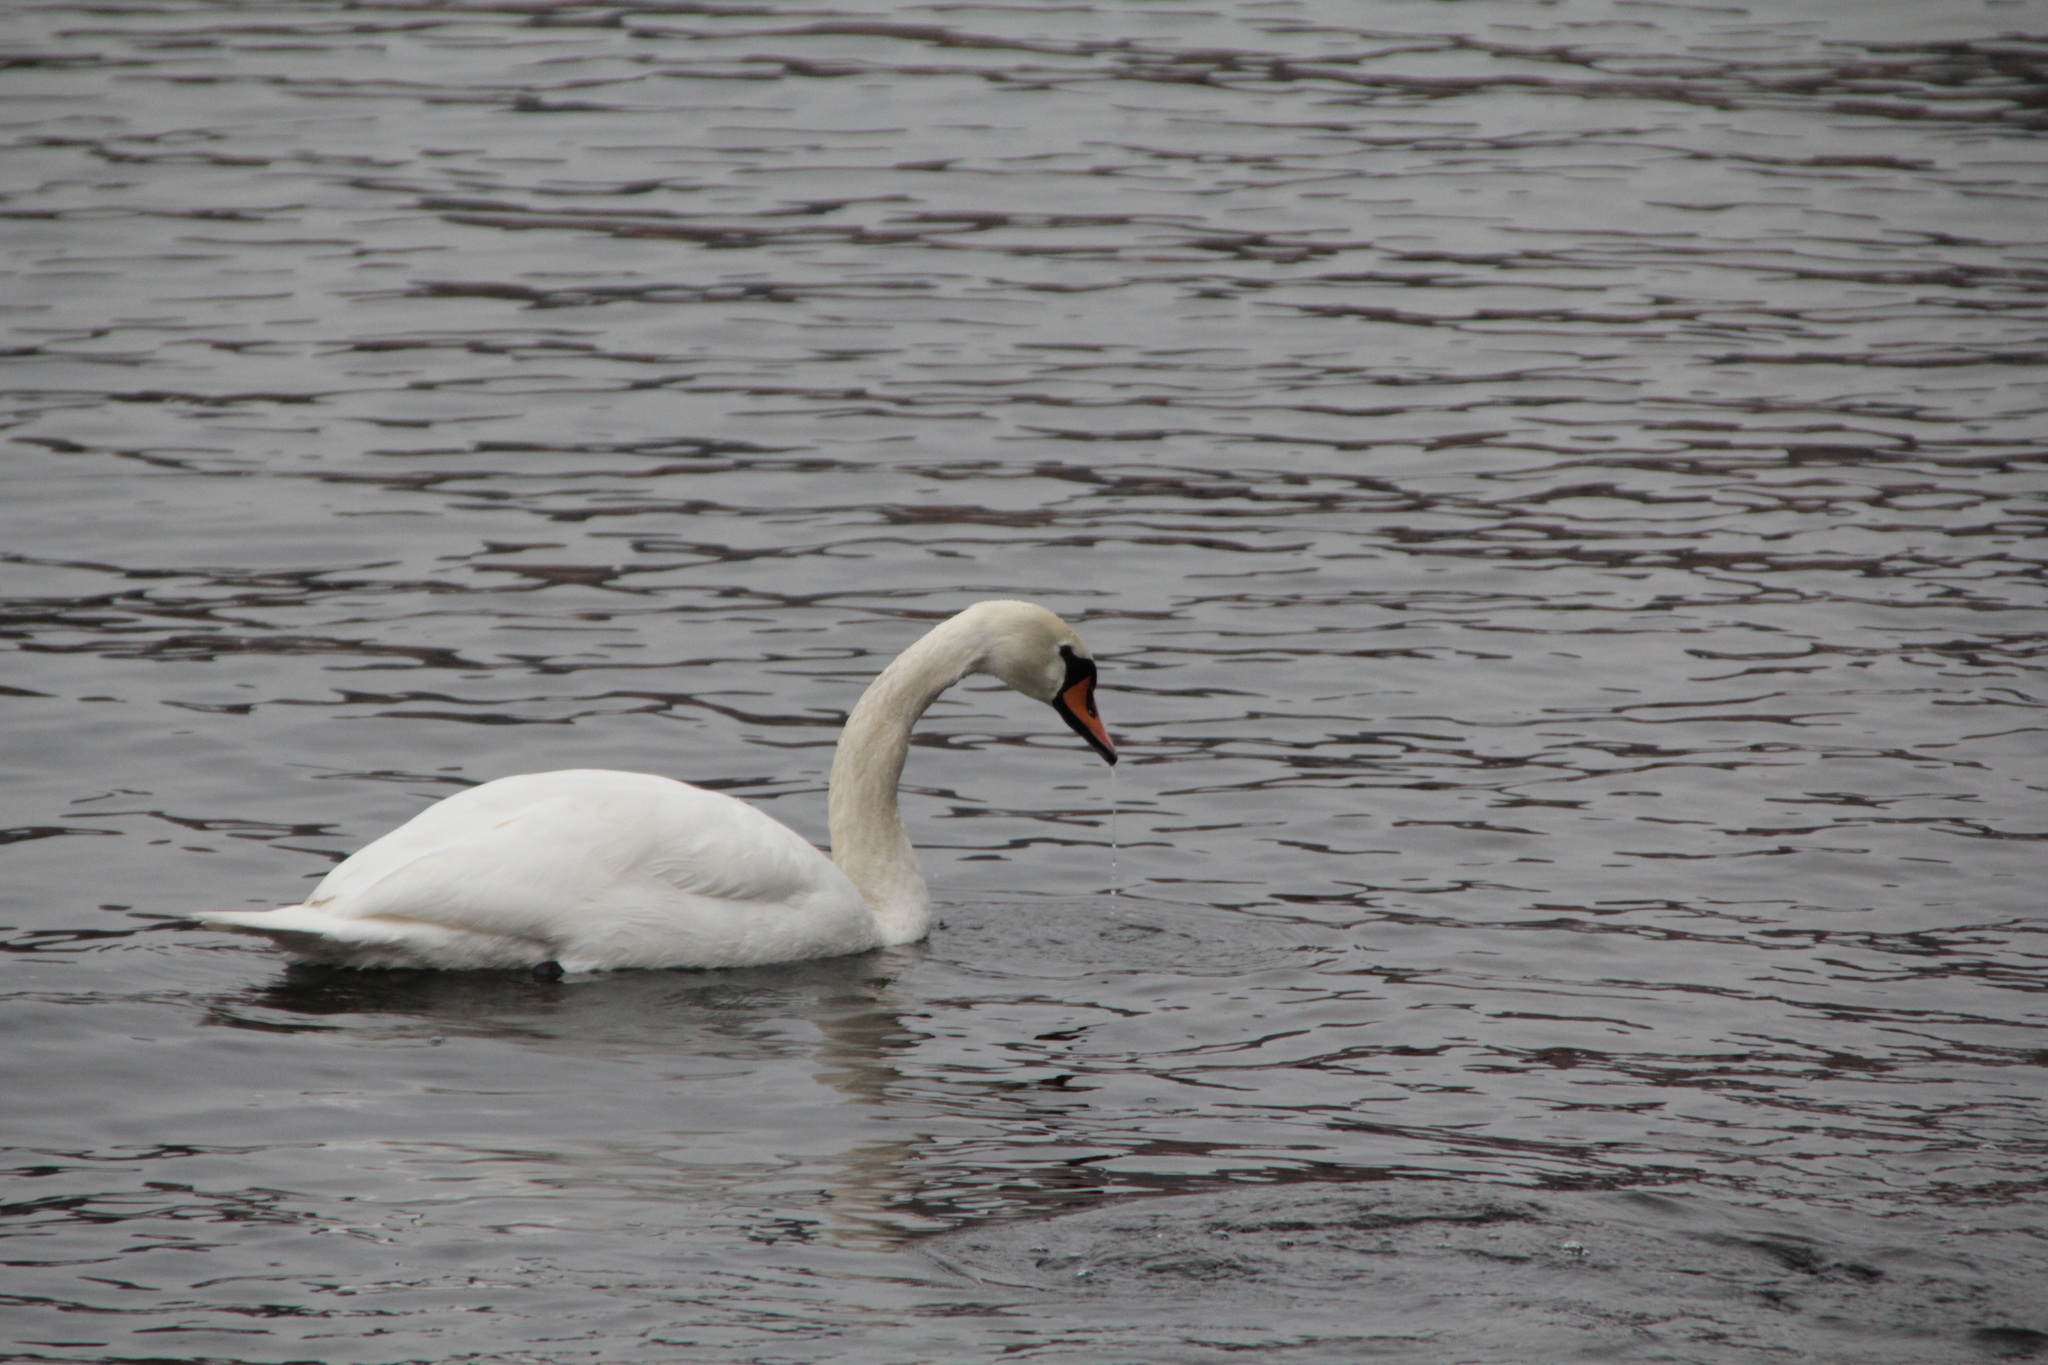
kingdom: Animalia
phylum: Chordata
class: Aves
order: Anseriformes
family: Anatidae
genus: Cygnus
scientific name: Cygnus olor
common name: Mute swan
